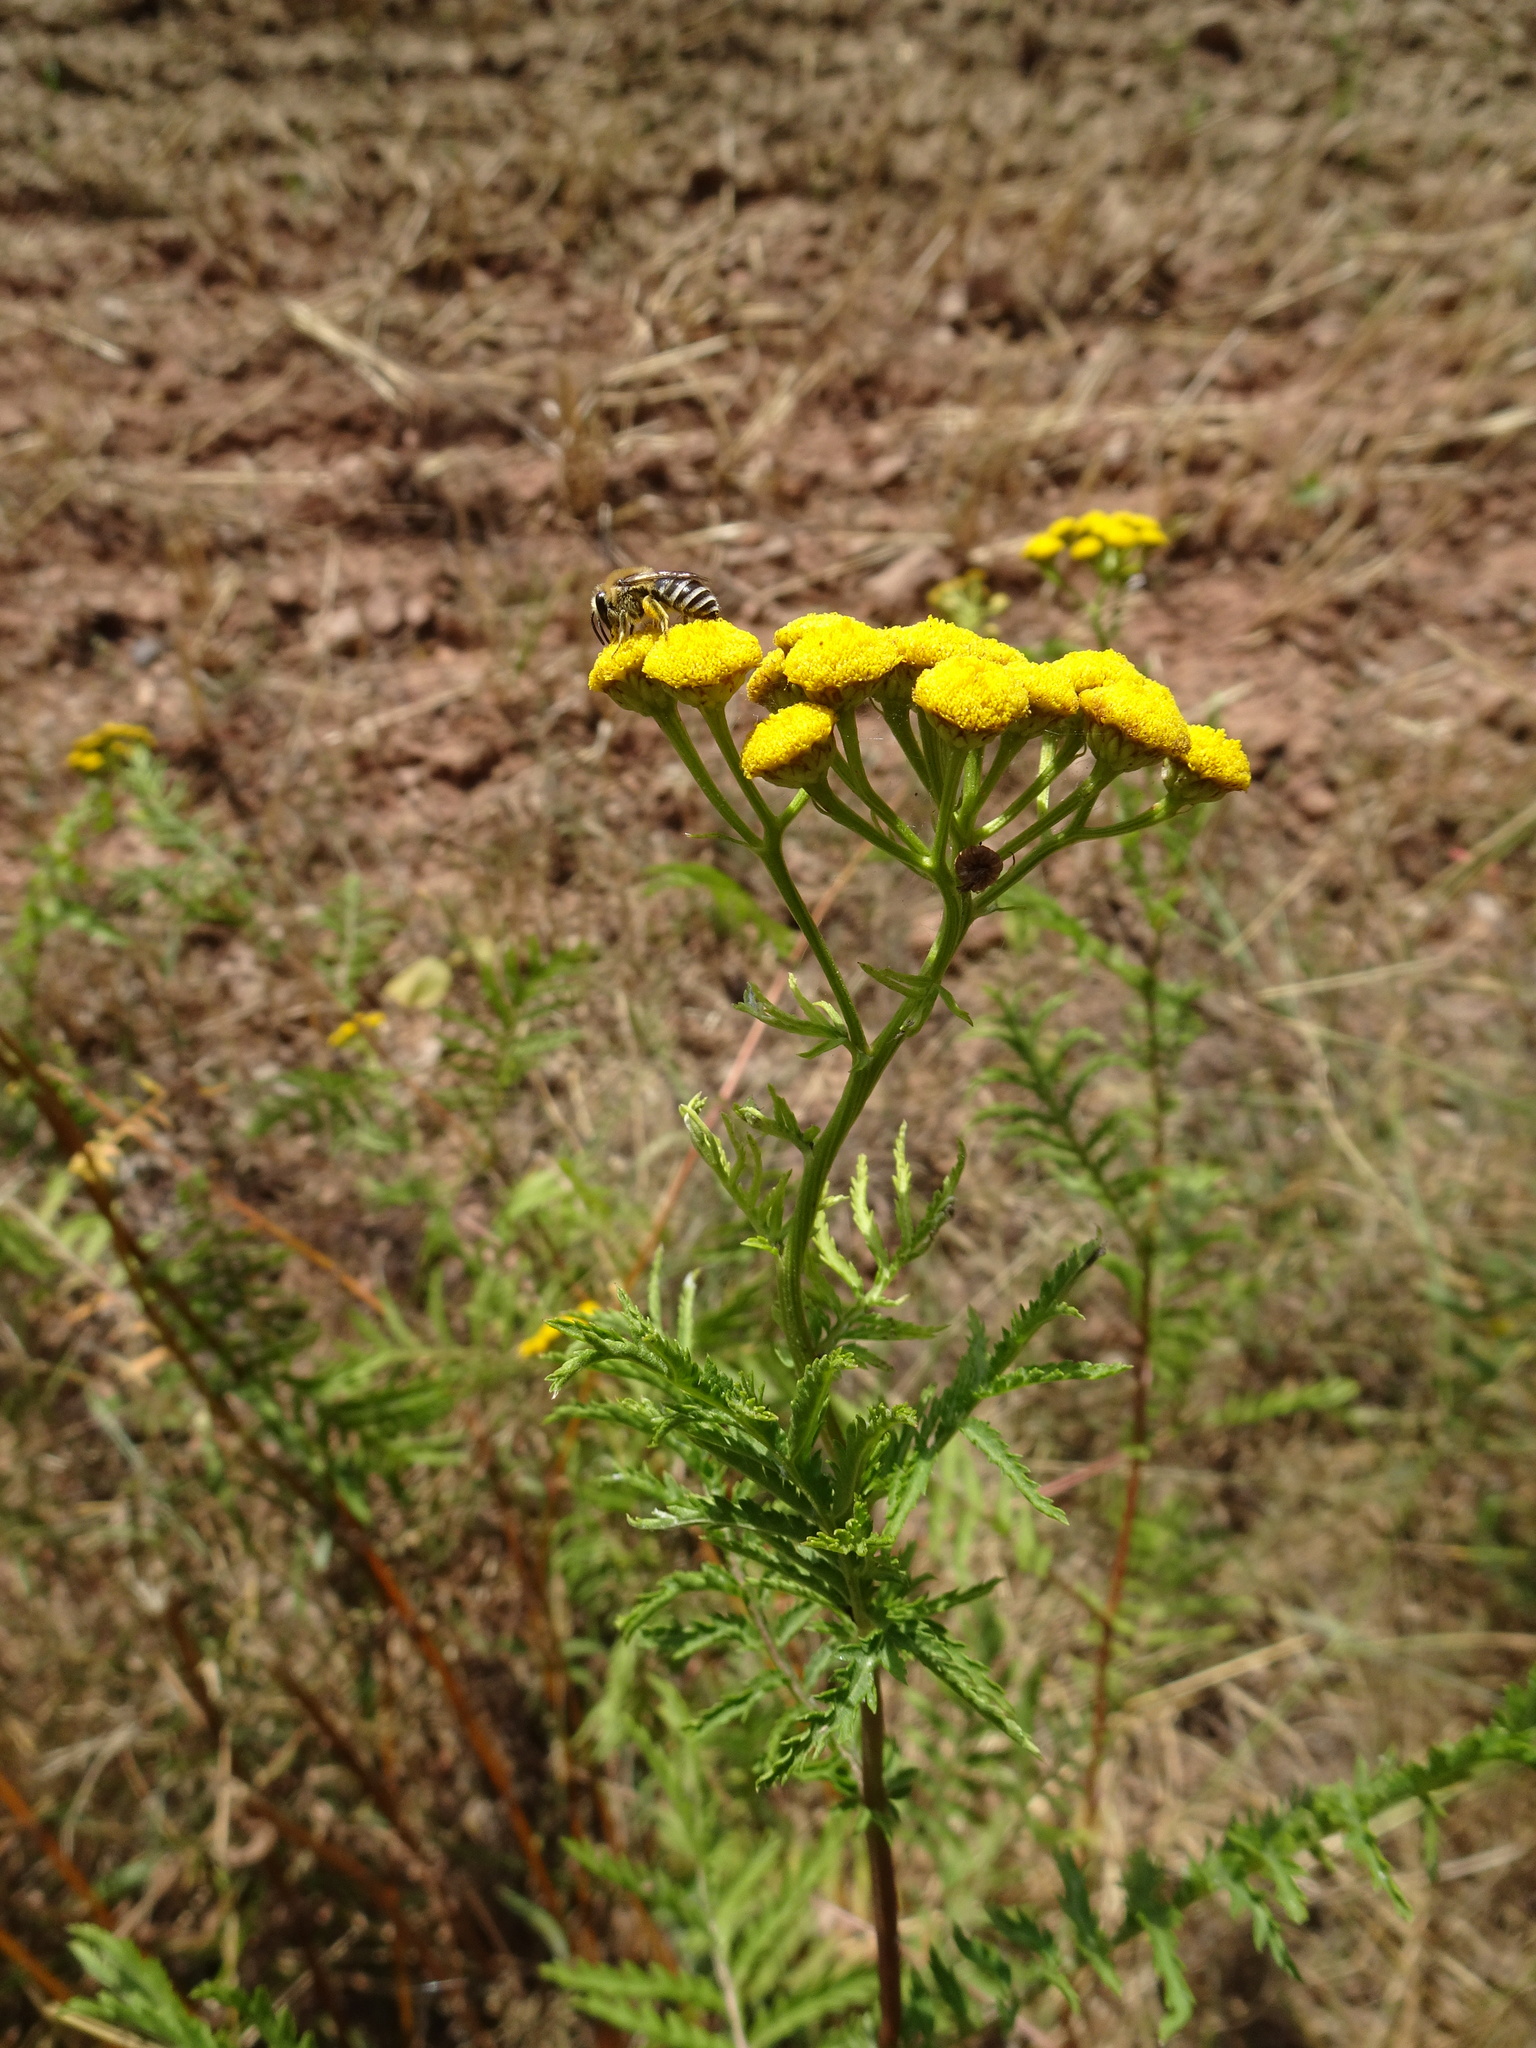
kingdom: Plantae
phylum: Tracheophyta
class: Magnoliopsida
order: Asterales
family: Asteraceae
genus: Tanacetum
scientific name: Tanacetum vulgare
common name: Common tansy
